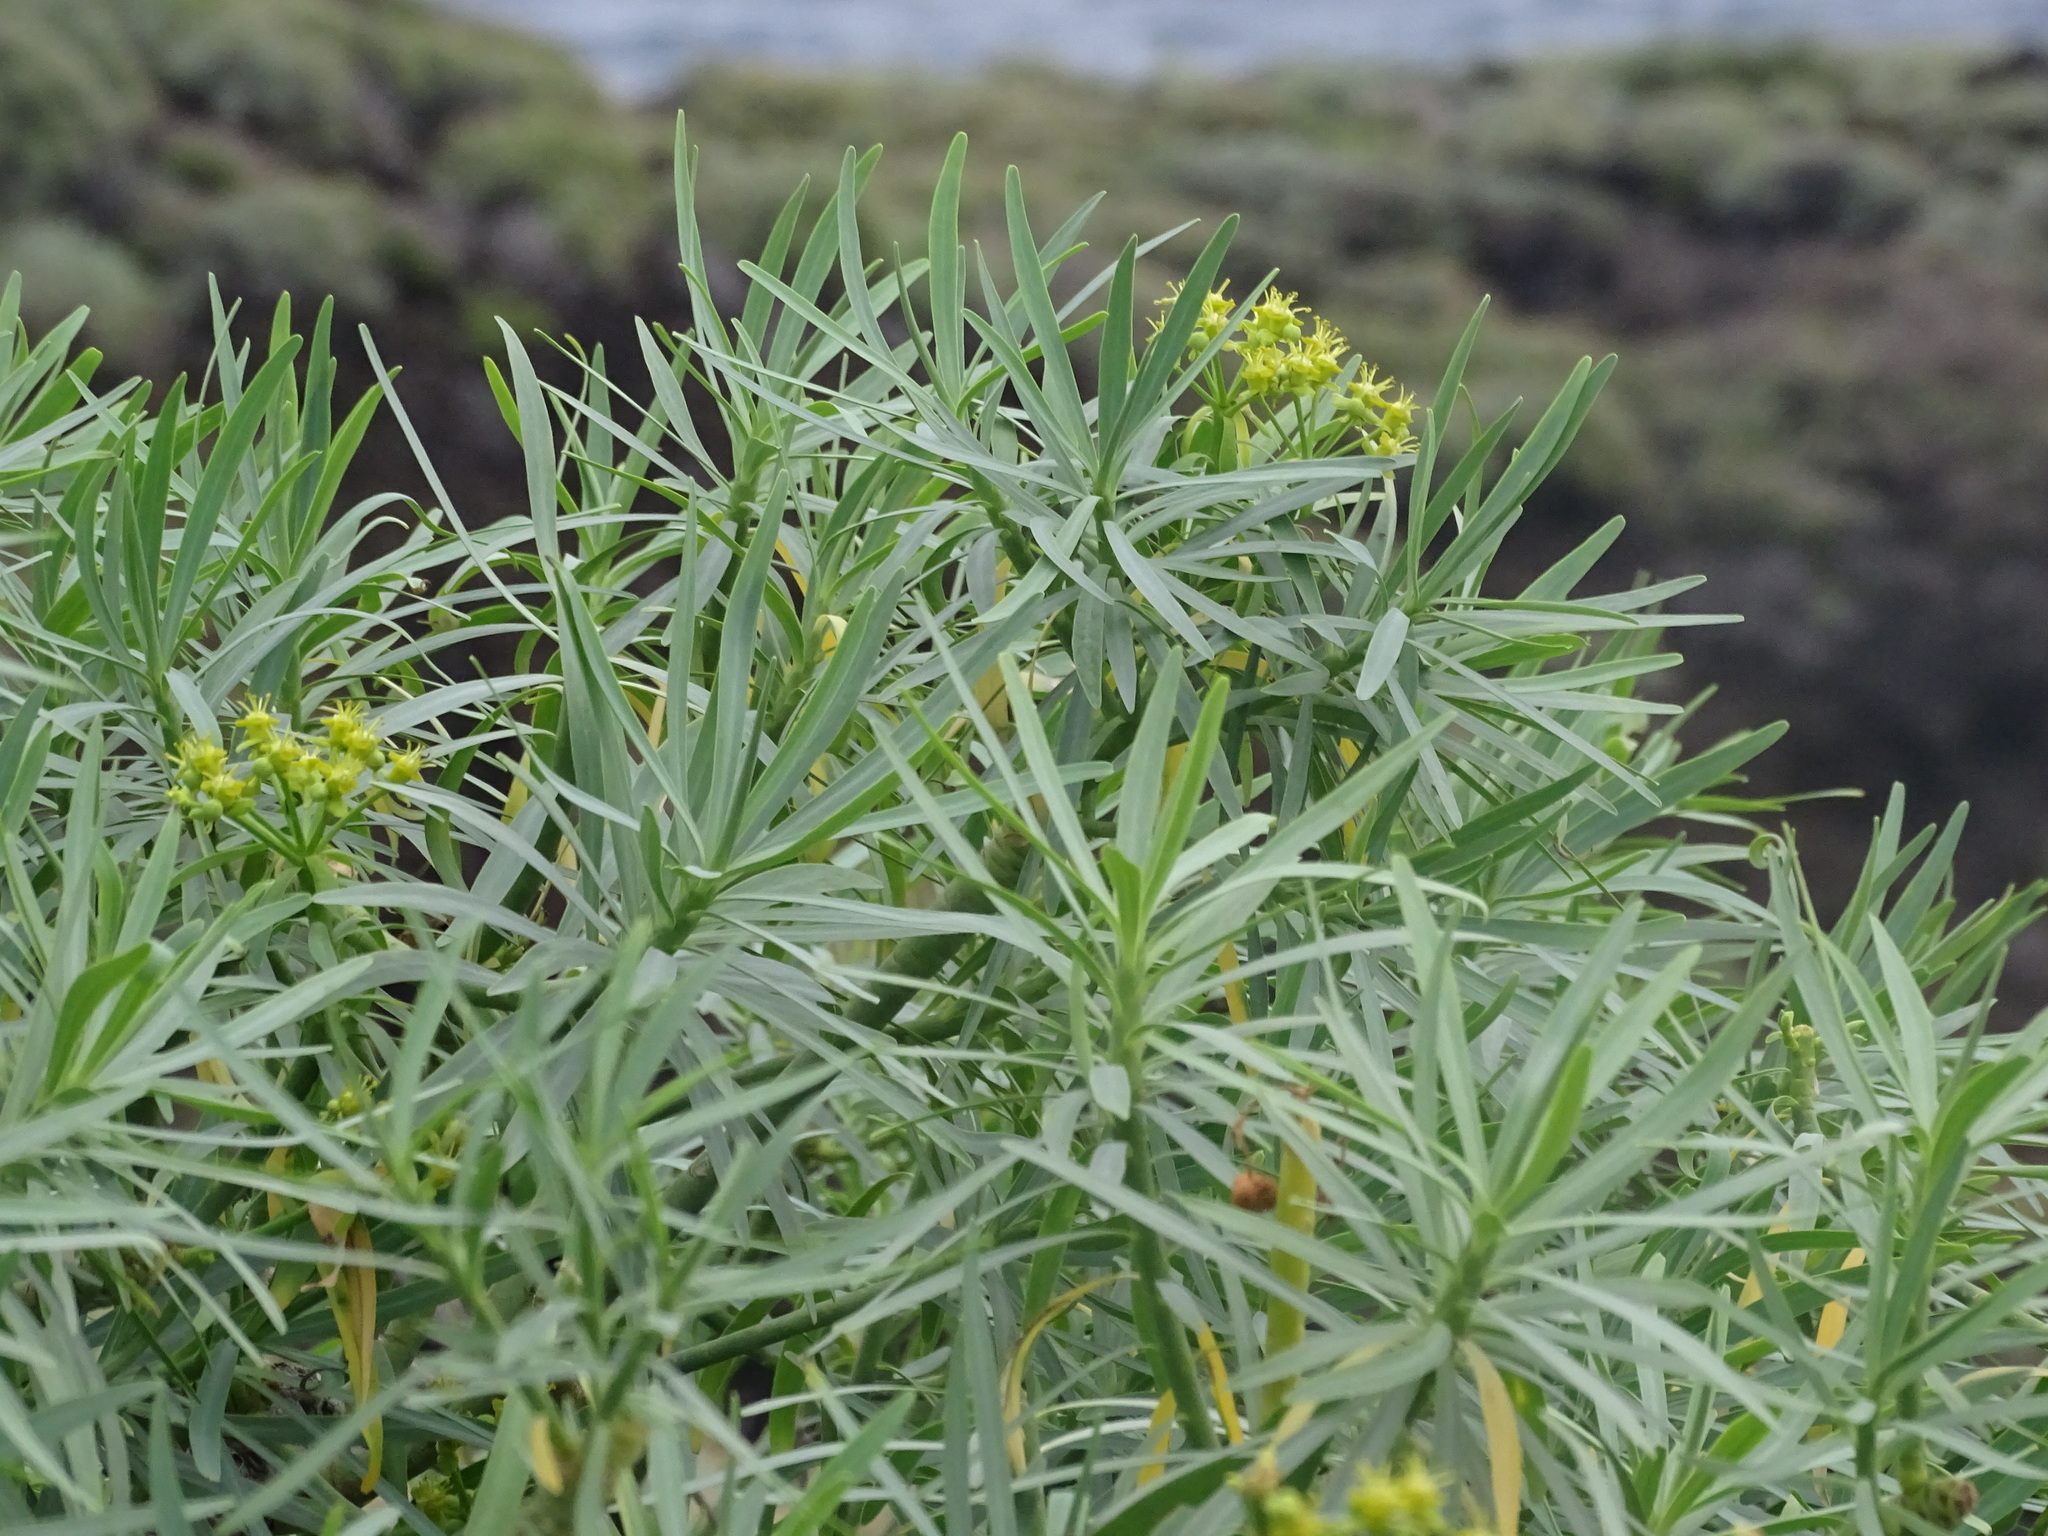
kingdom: Plantae
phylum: Tracheophyta
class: Magnoliopsida
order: Malpighiales
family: Euphorbiaceae
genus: Euphorbia
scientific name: Euphorbia lamarckii
